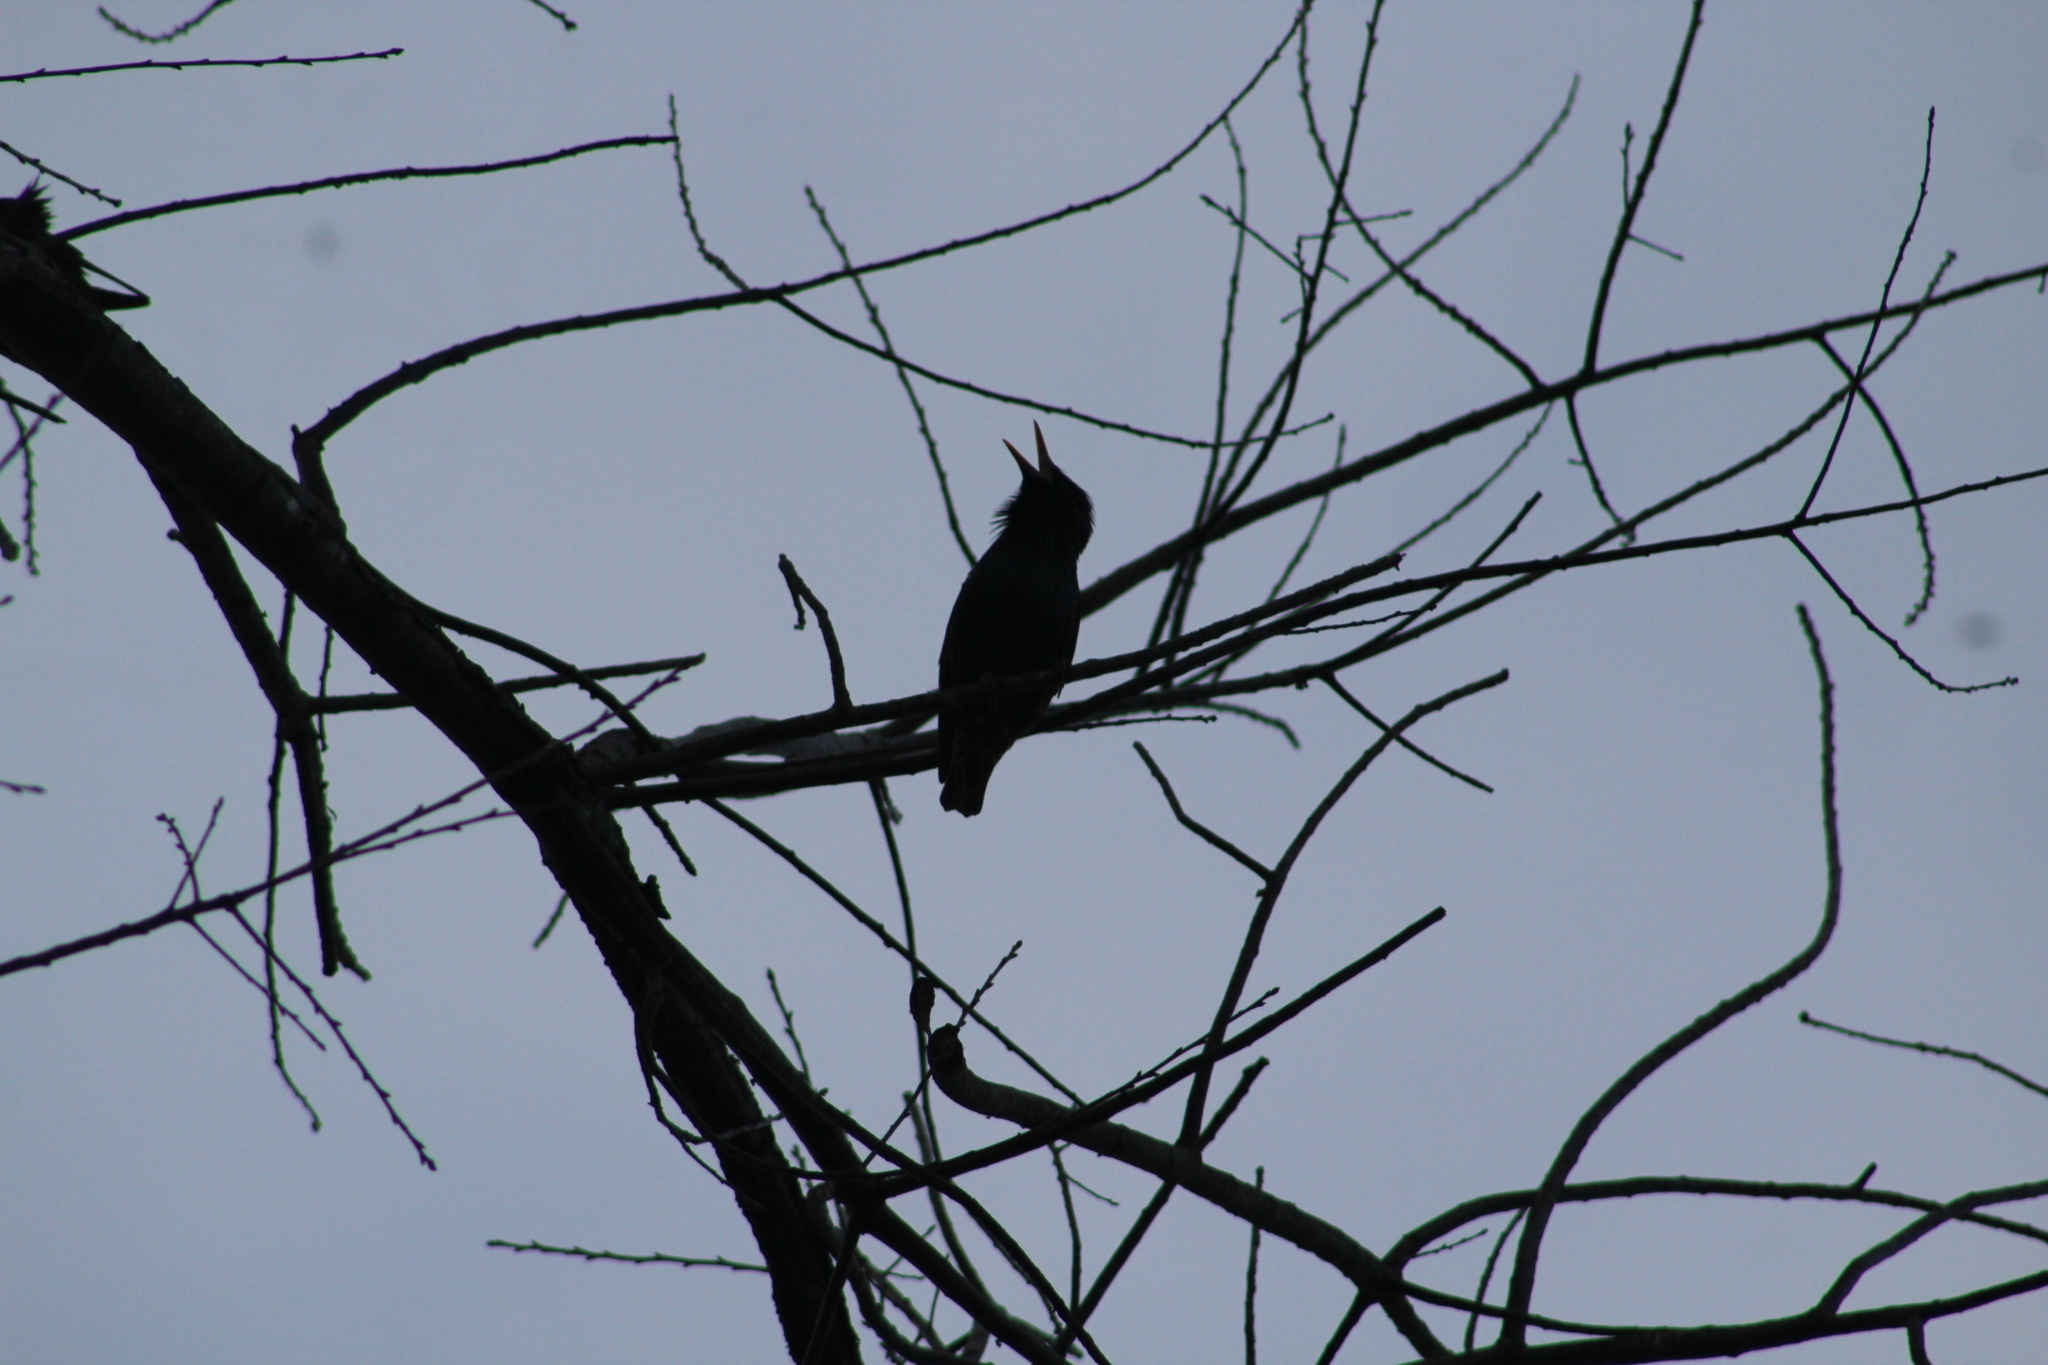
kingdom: Animalia
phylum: Chordata
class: Aves
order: Passeriformes
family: Sturnidae
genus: Sturnus
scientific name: Sturnus vulgaris
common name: Common starling
